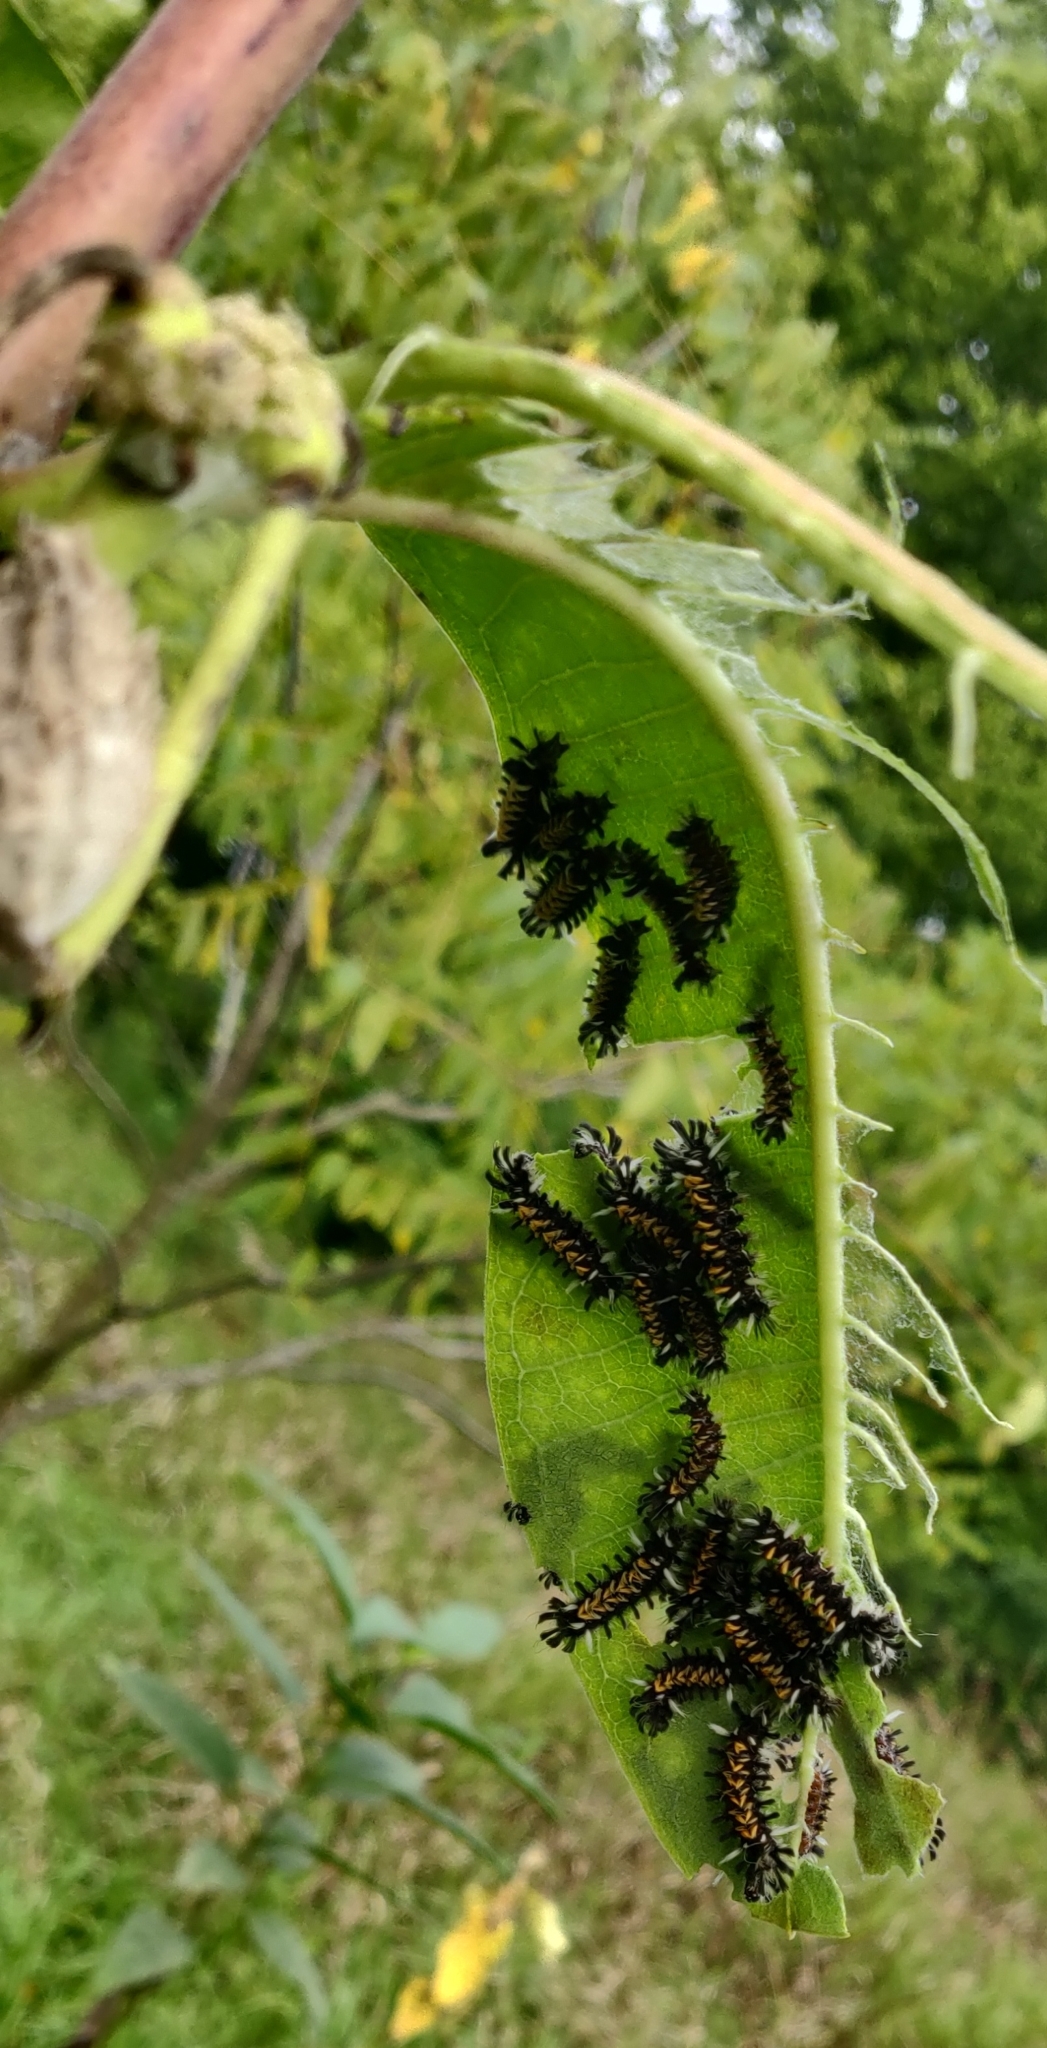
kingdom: Animalia
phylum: Arthropoda
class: Insecta
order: Lepidoptera
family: Erebidae
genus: Euchaetes
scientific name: Euchaetes egle
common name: Milkweed tussock moth
